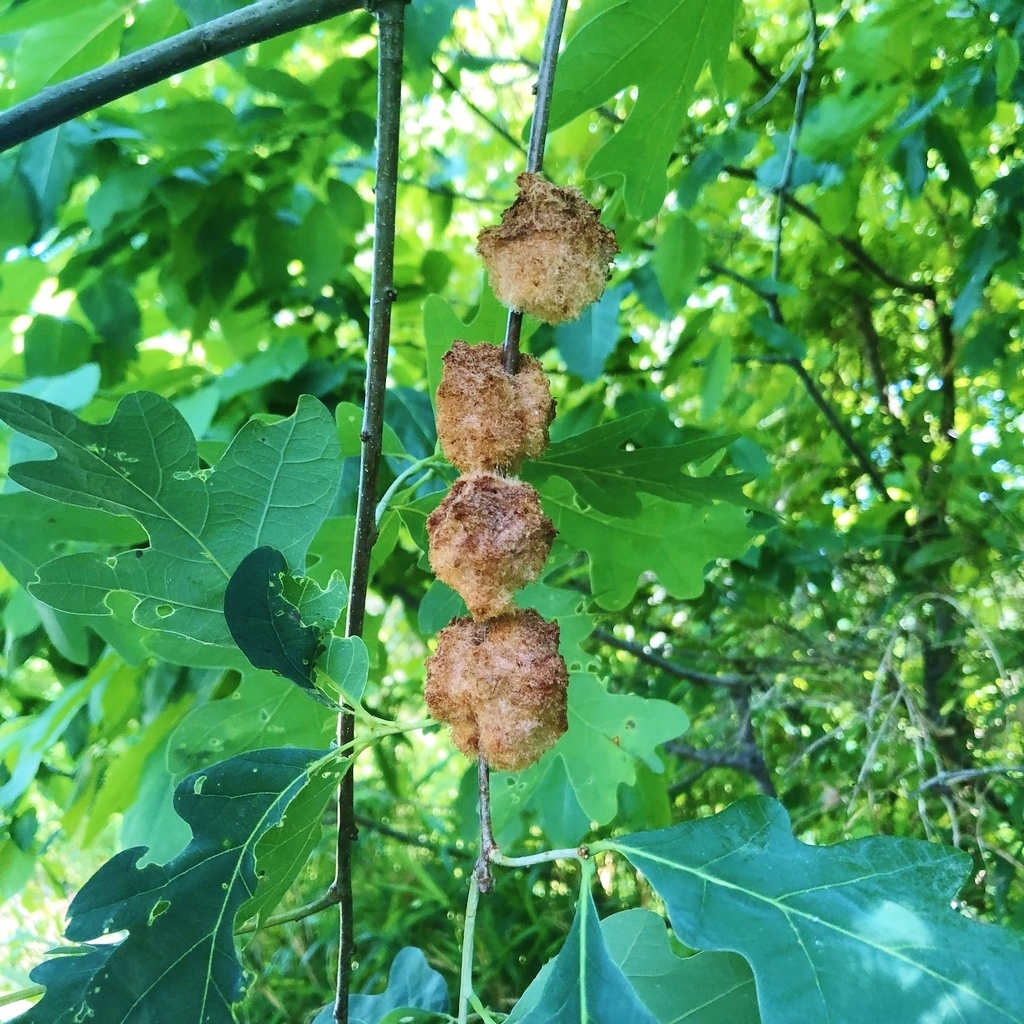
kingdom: Animalia
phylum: Arthropoda
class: Insecta
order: Hymenoptera
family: Cynipidae
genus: Callirhytis
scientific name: Callirhytis
